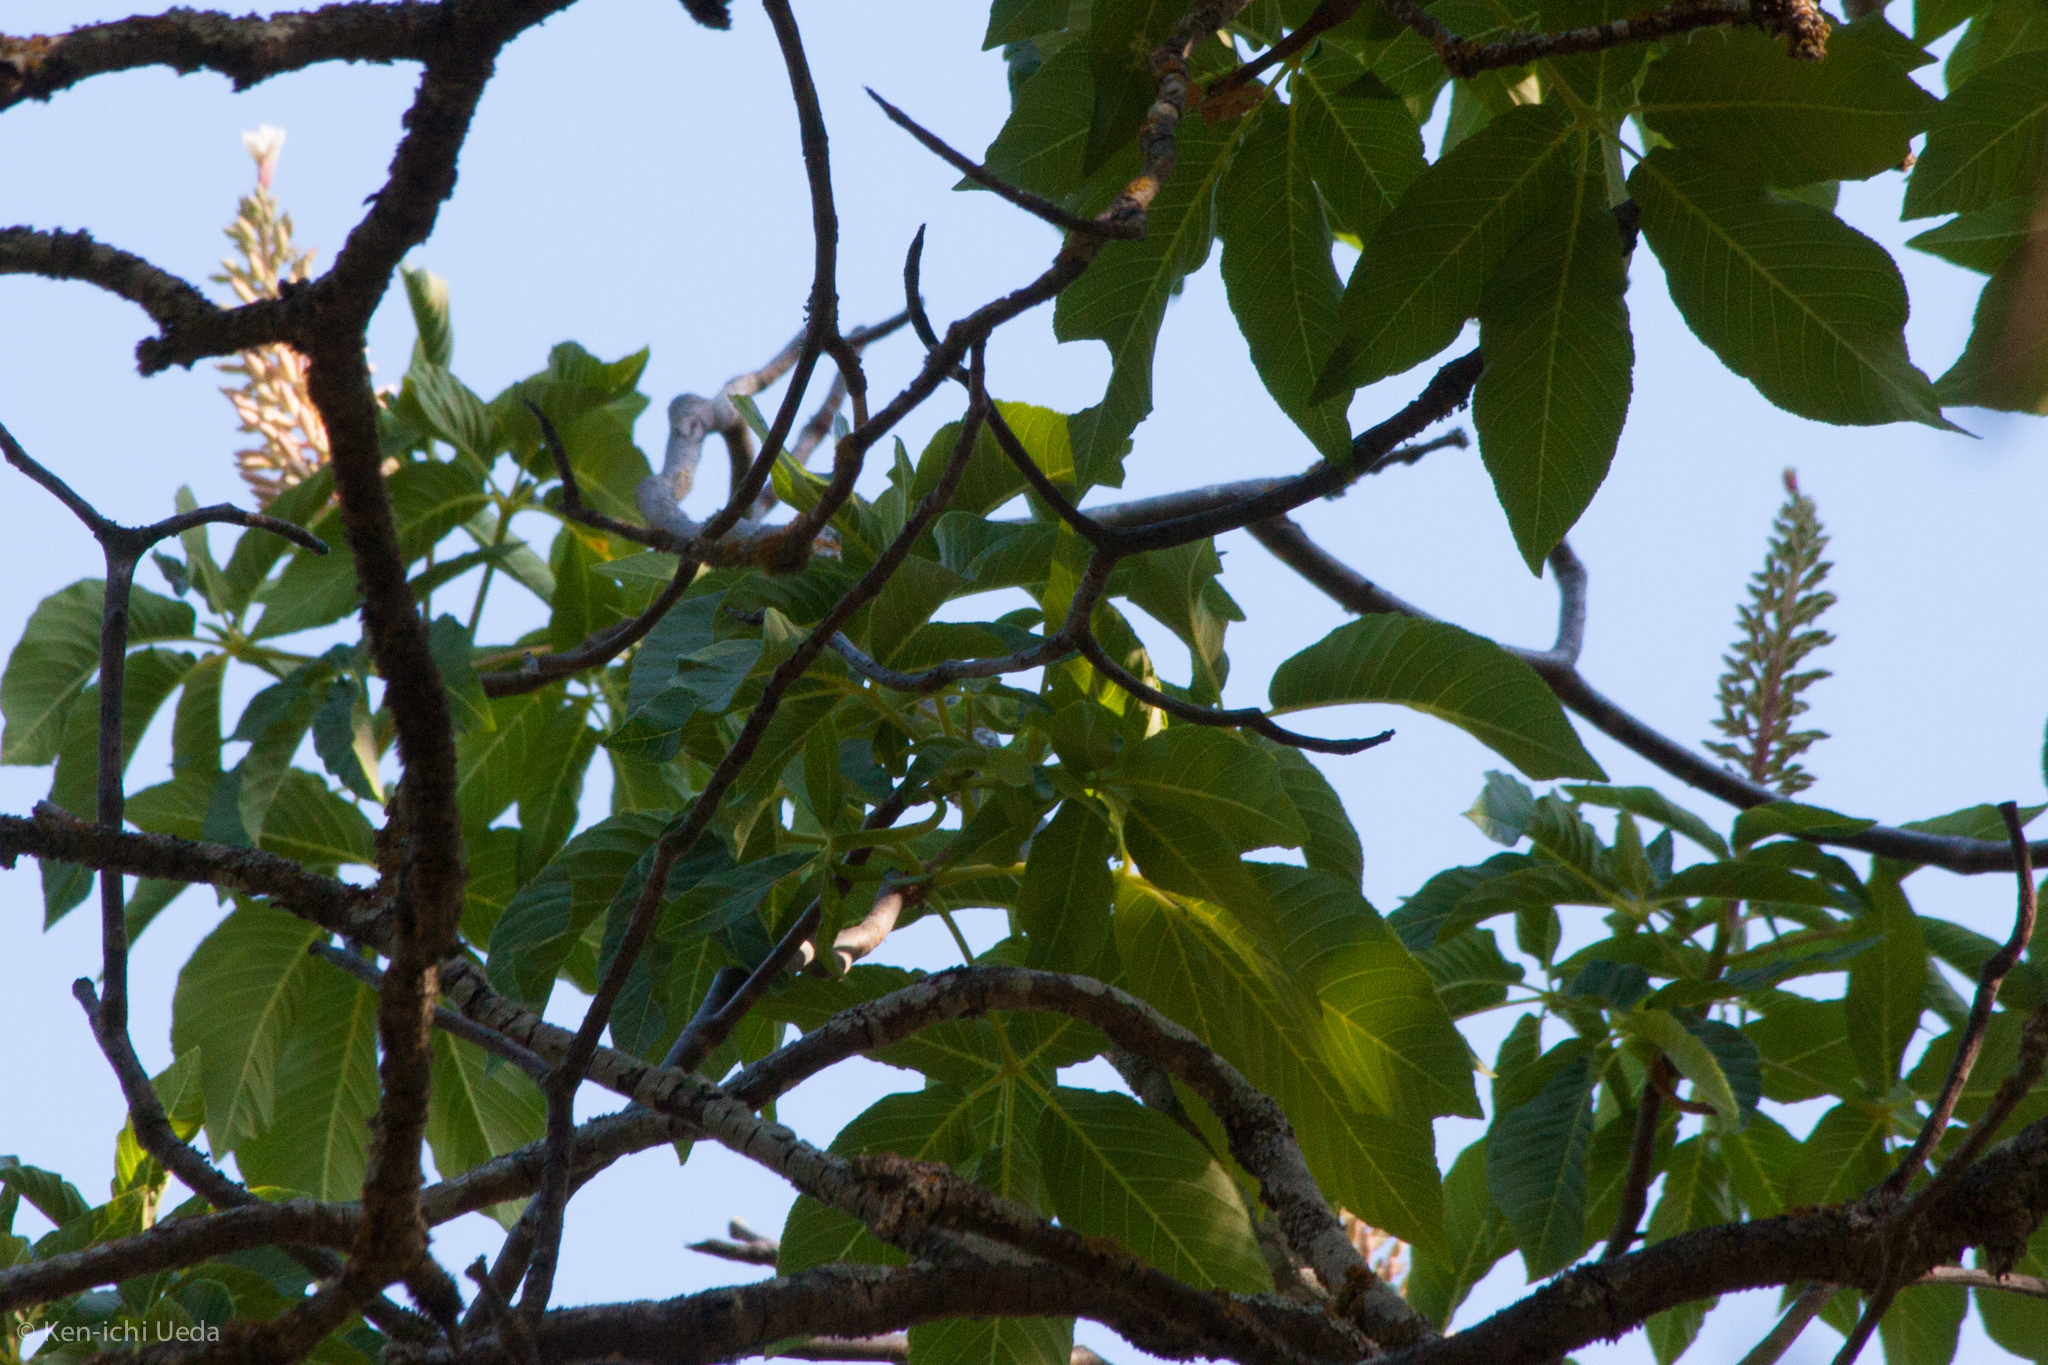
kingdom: Plantae
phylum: Tracheophyta
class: Magnoliopsida
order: Sapindales
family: Sapindaceae
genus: Aesculus
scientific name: Aesculus californica
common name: California buckeye
